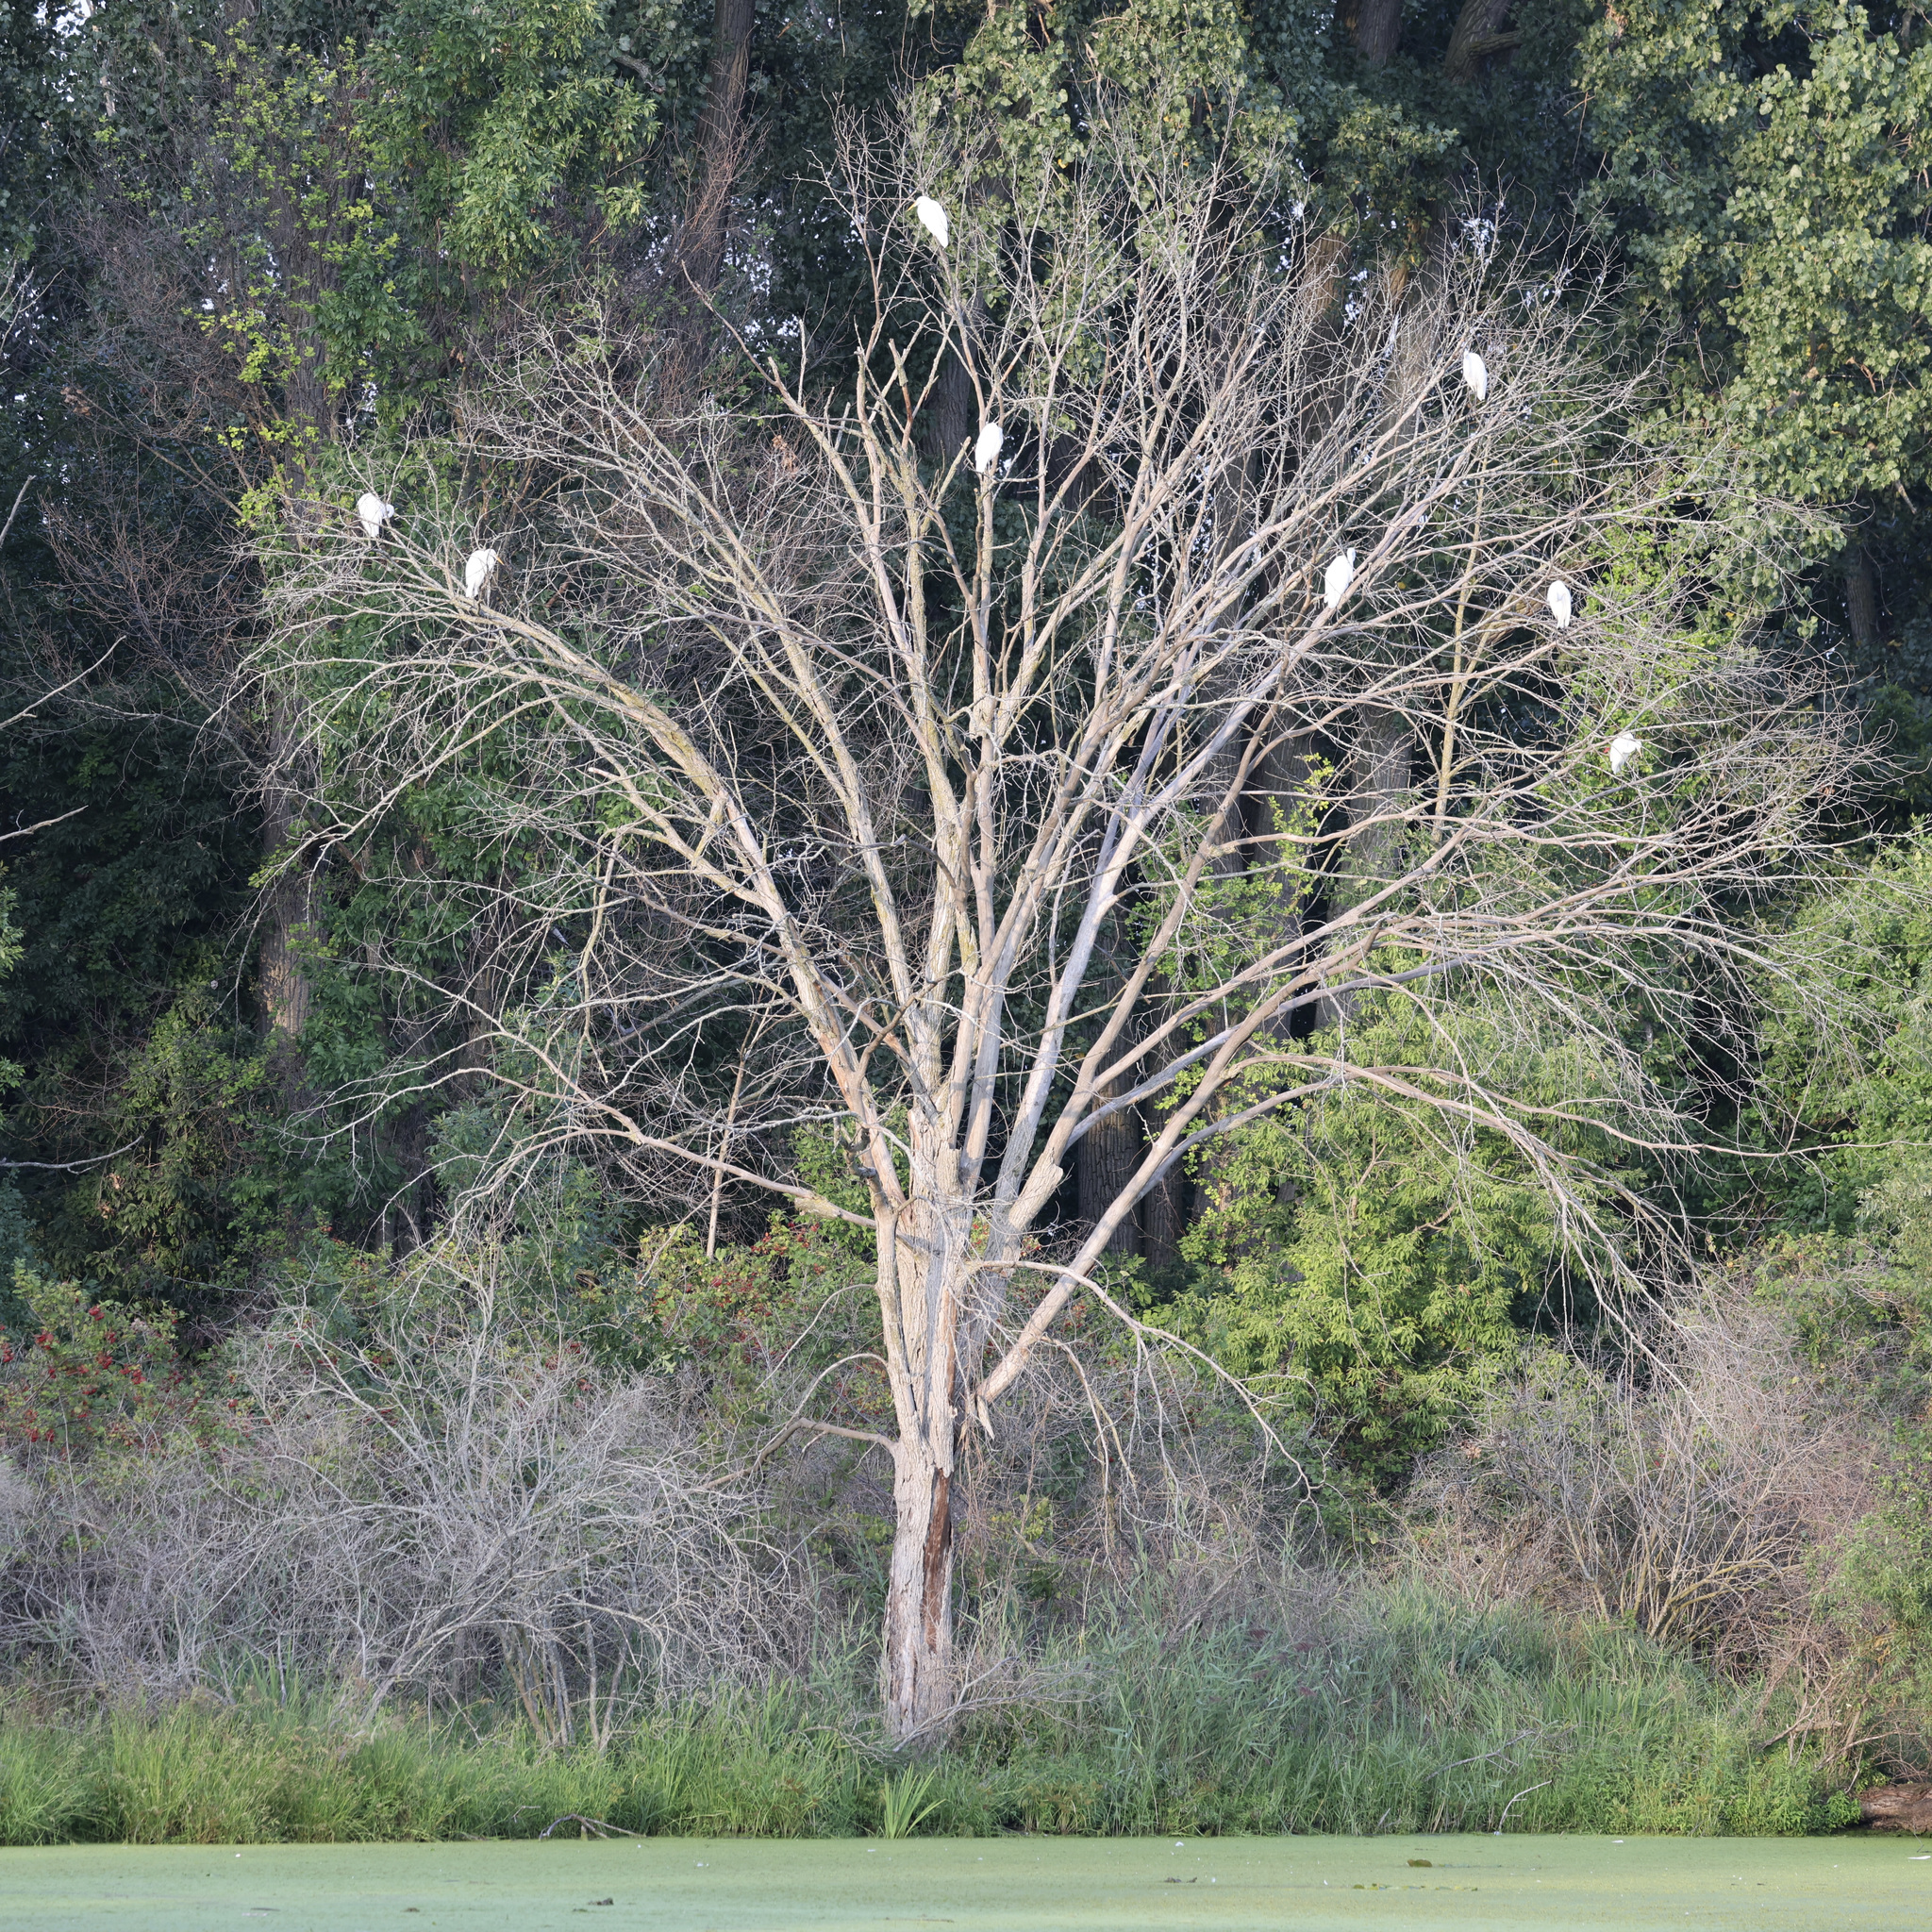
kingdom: Animalia
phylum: Chordata
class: Aves
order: Pelecaniformes
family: Ardeidae
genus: Ardea
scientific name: Ardea alba
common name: Great egret
